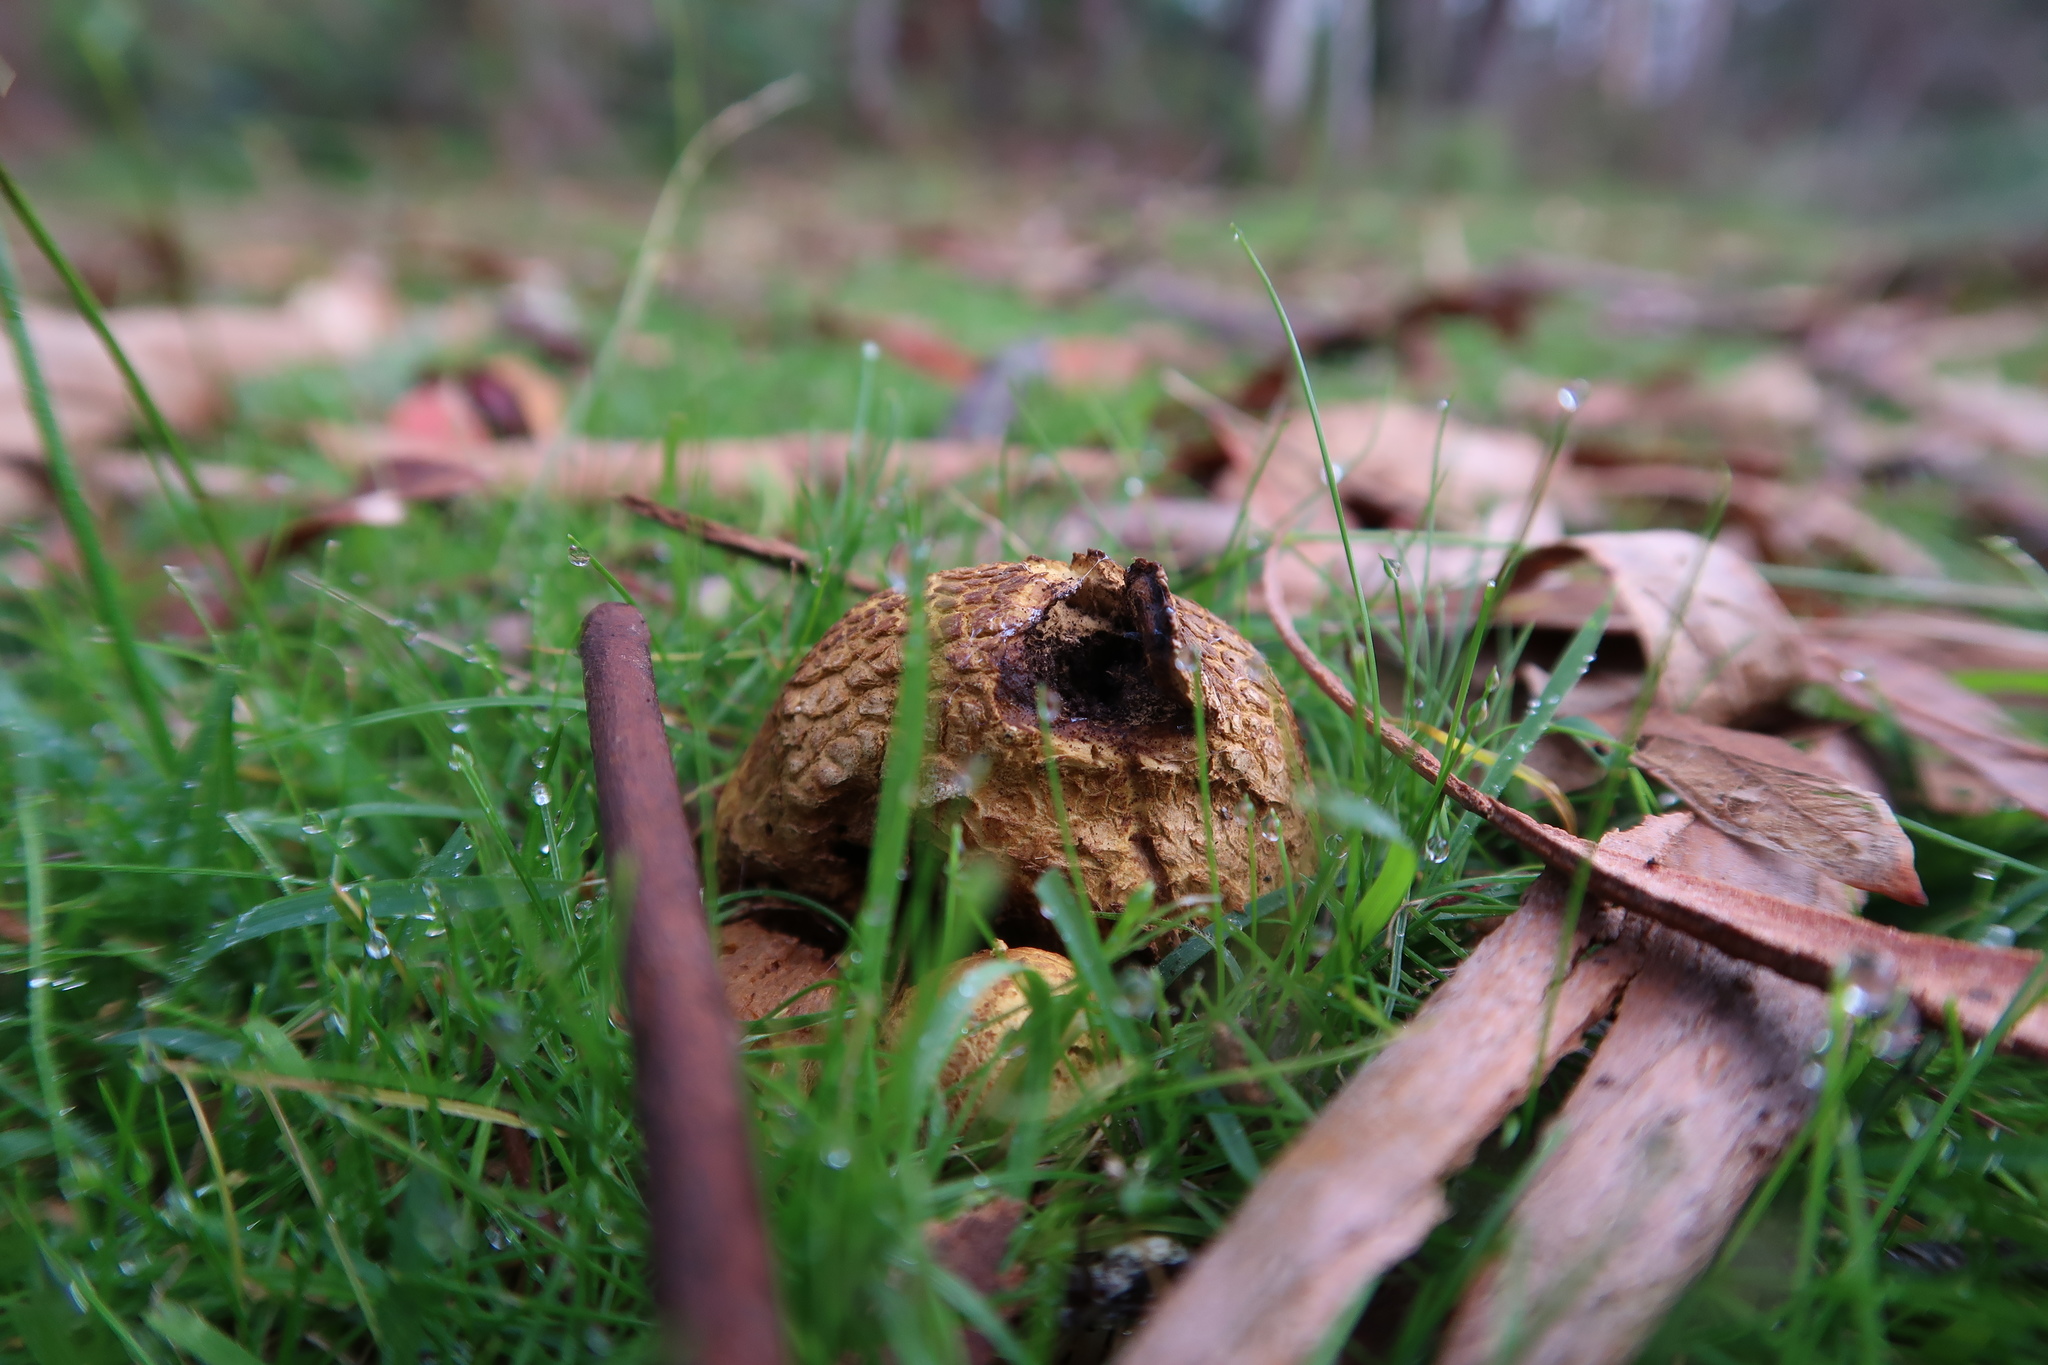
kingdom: Fungi
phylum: Basidiomycota
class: Agaricomycetes
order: Boletales
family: Sclerodermataceae
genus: Scleroderma
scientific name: Scleroderma cepa
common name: Onion earthball
